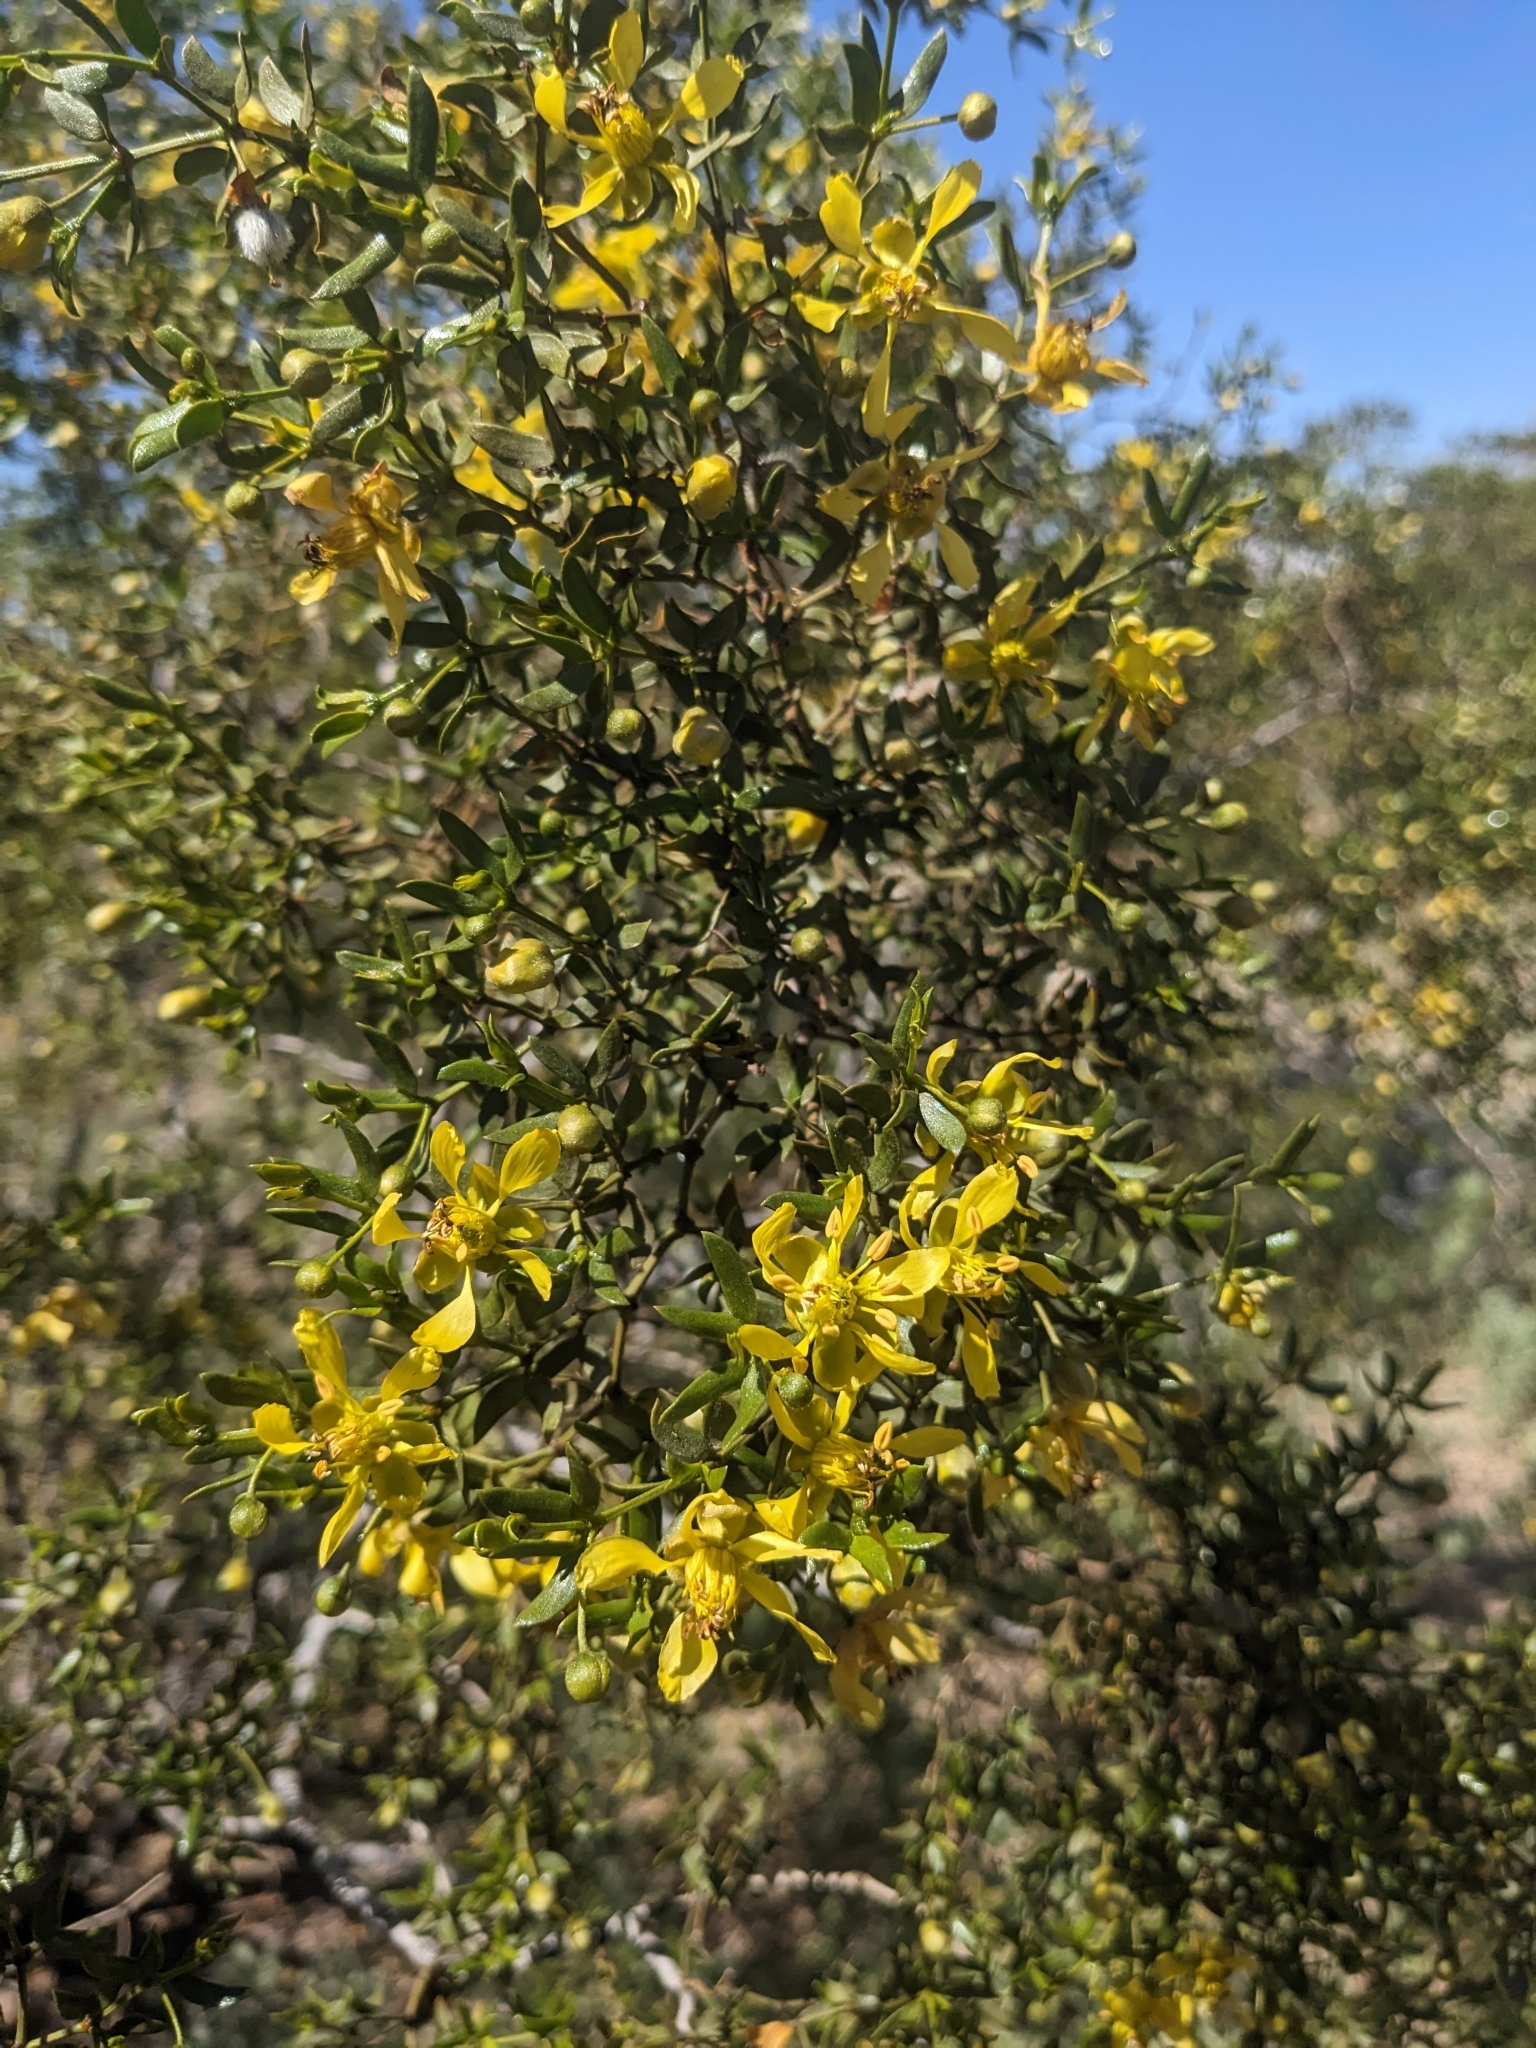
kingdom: Plantae
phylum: Tracheophyta
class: Magnoliopsida
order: Zygophyllales
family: Zygophyllaceae
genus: Larrea
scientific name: Larrea tridentata
